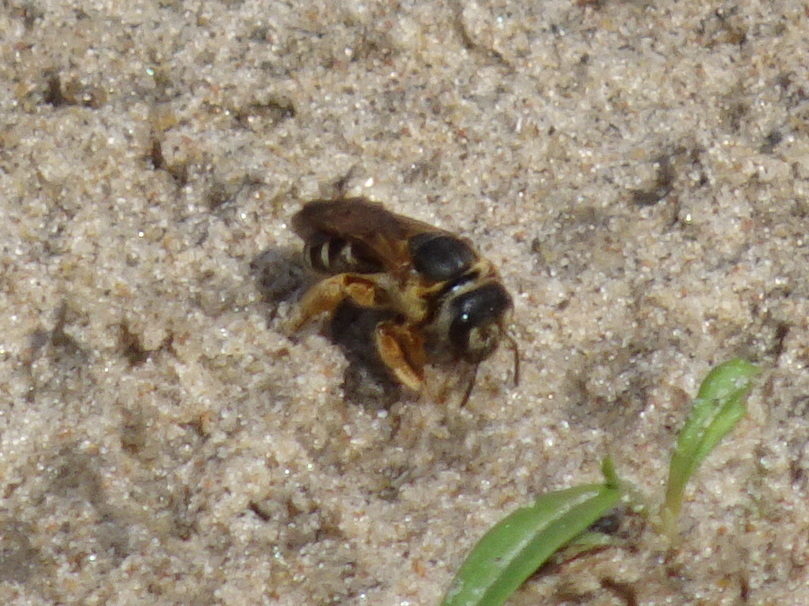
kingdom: Animalia
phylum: Arthropoda
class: Insecta
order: Hymenoptera
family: Halictidae
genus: Halictus
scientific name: Halictus parallelus
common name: Parallel-striped sweat bee
